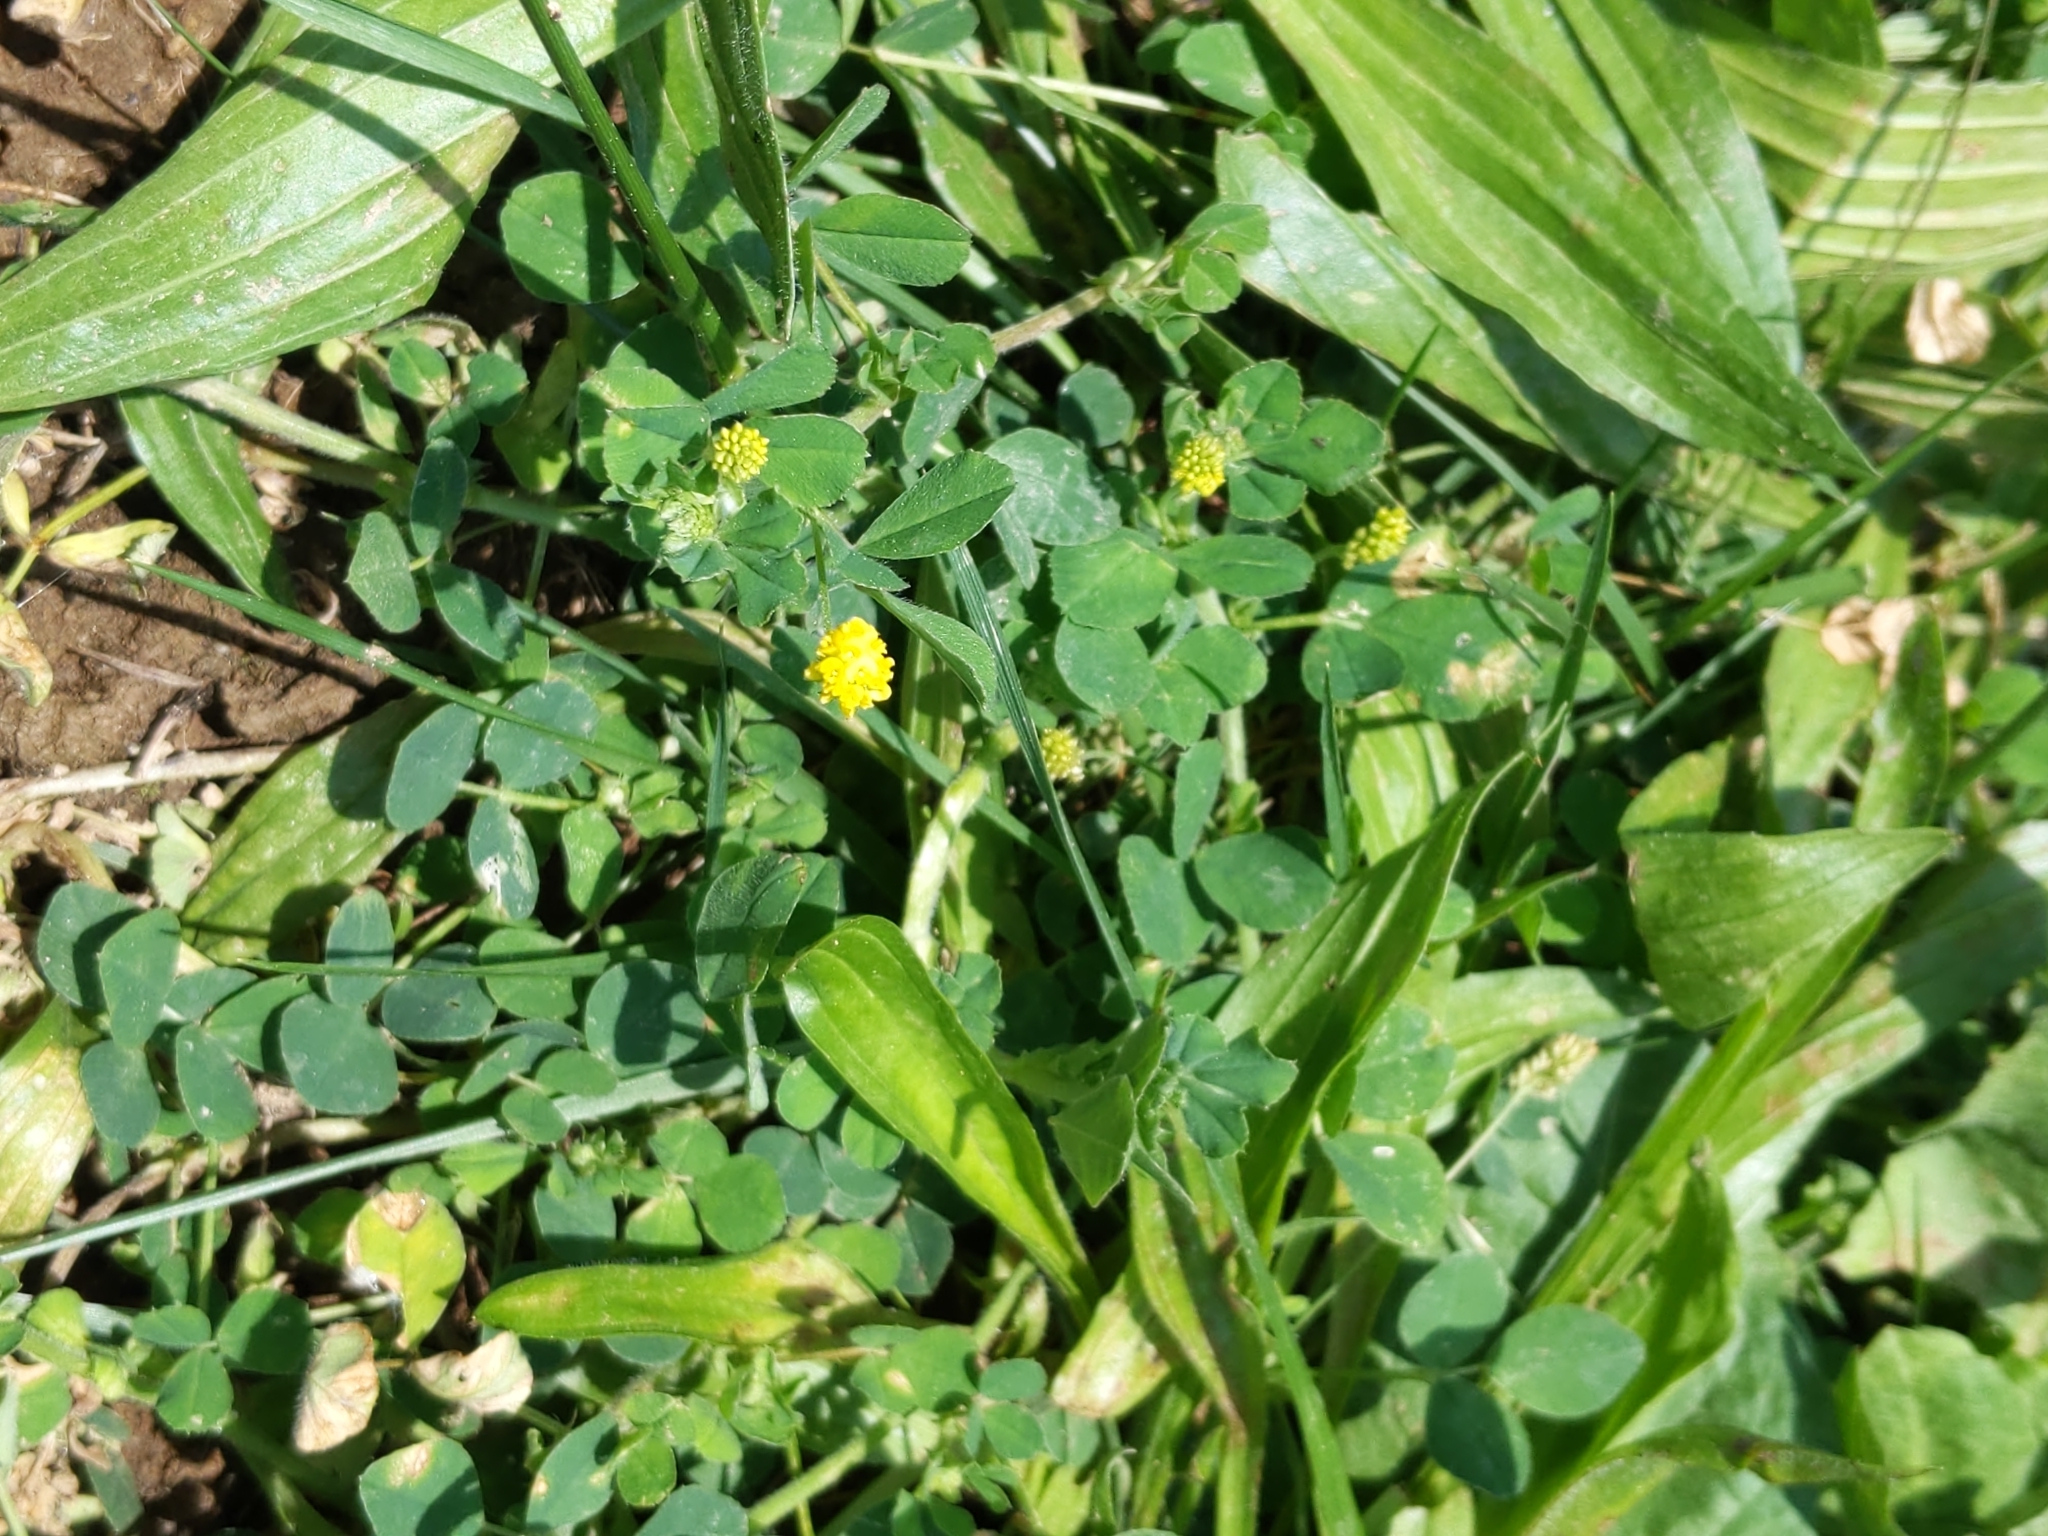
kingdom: Plantae
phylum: Tracheophyta
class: Magnoliopsida
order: Fabales
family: Fabaceae
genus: Medicago
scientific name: Medicago lupulina
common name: Black medick
